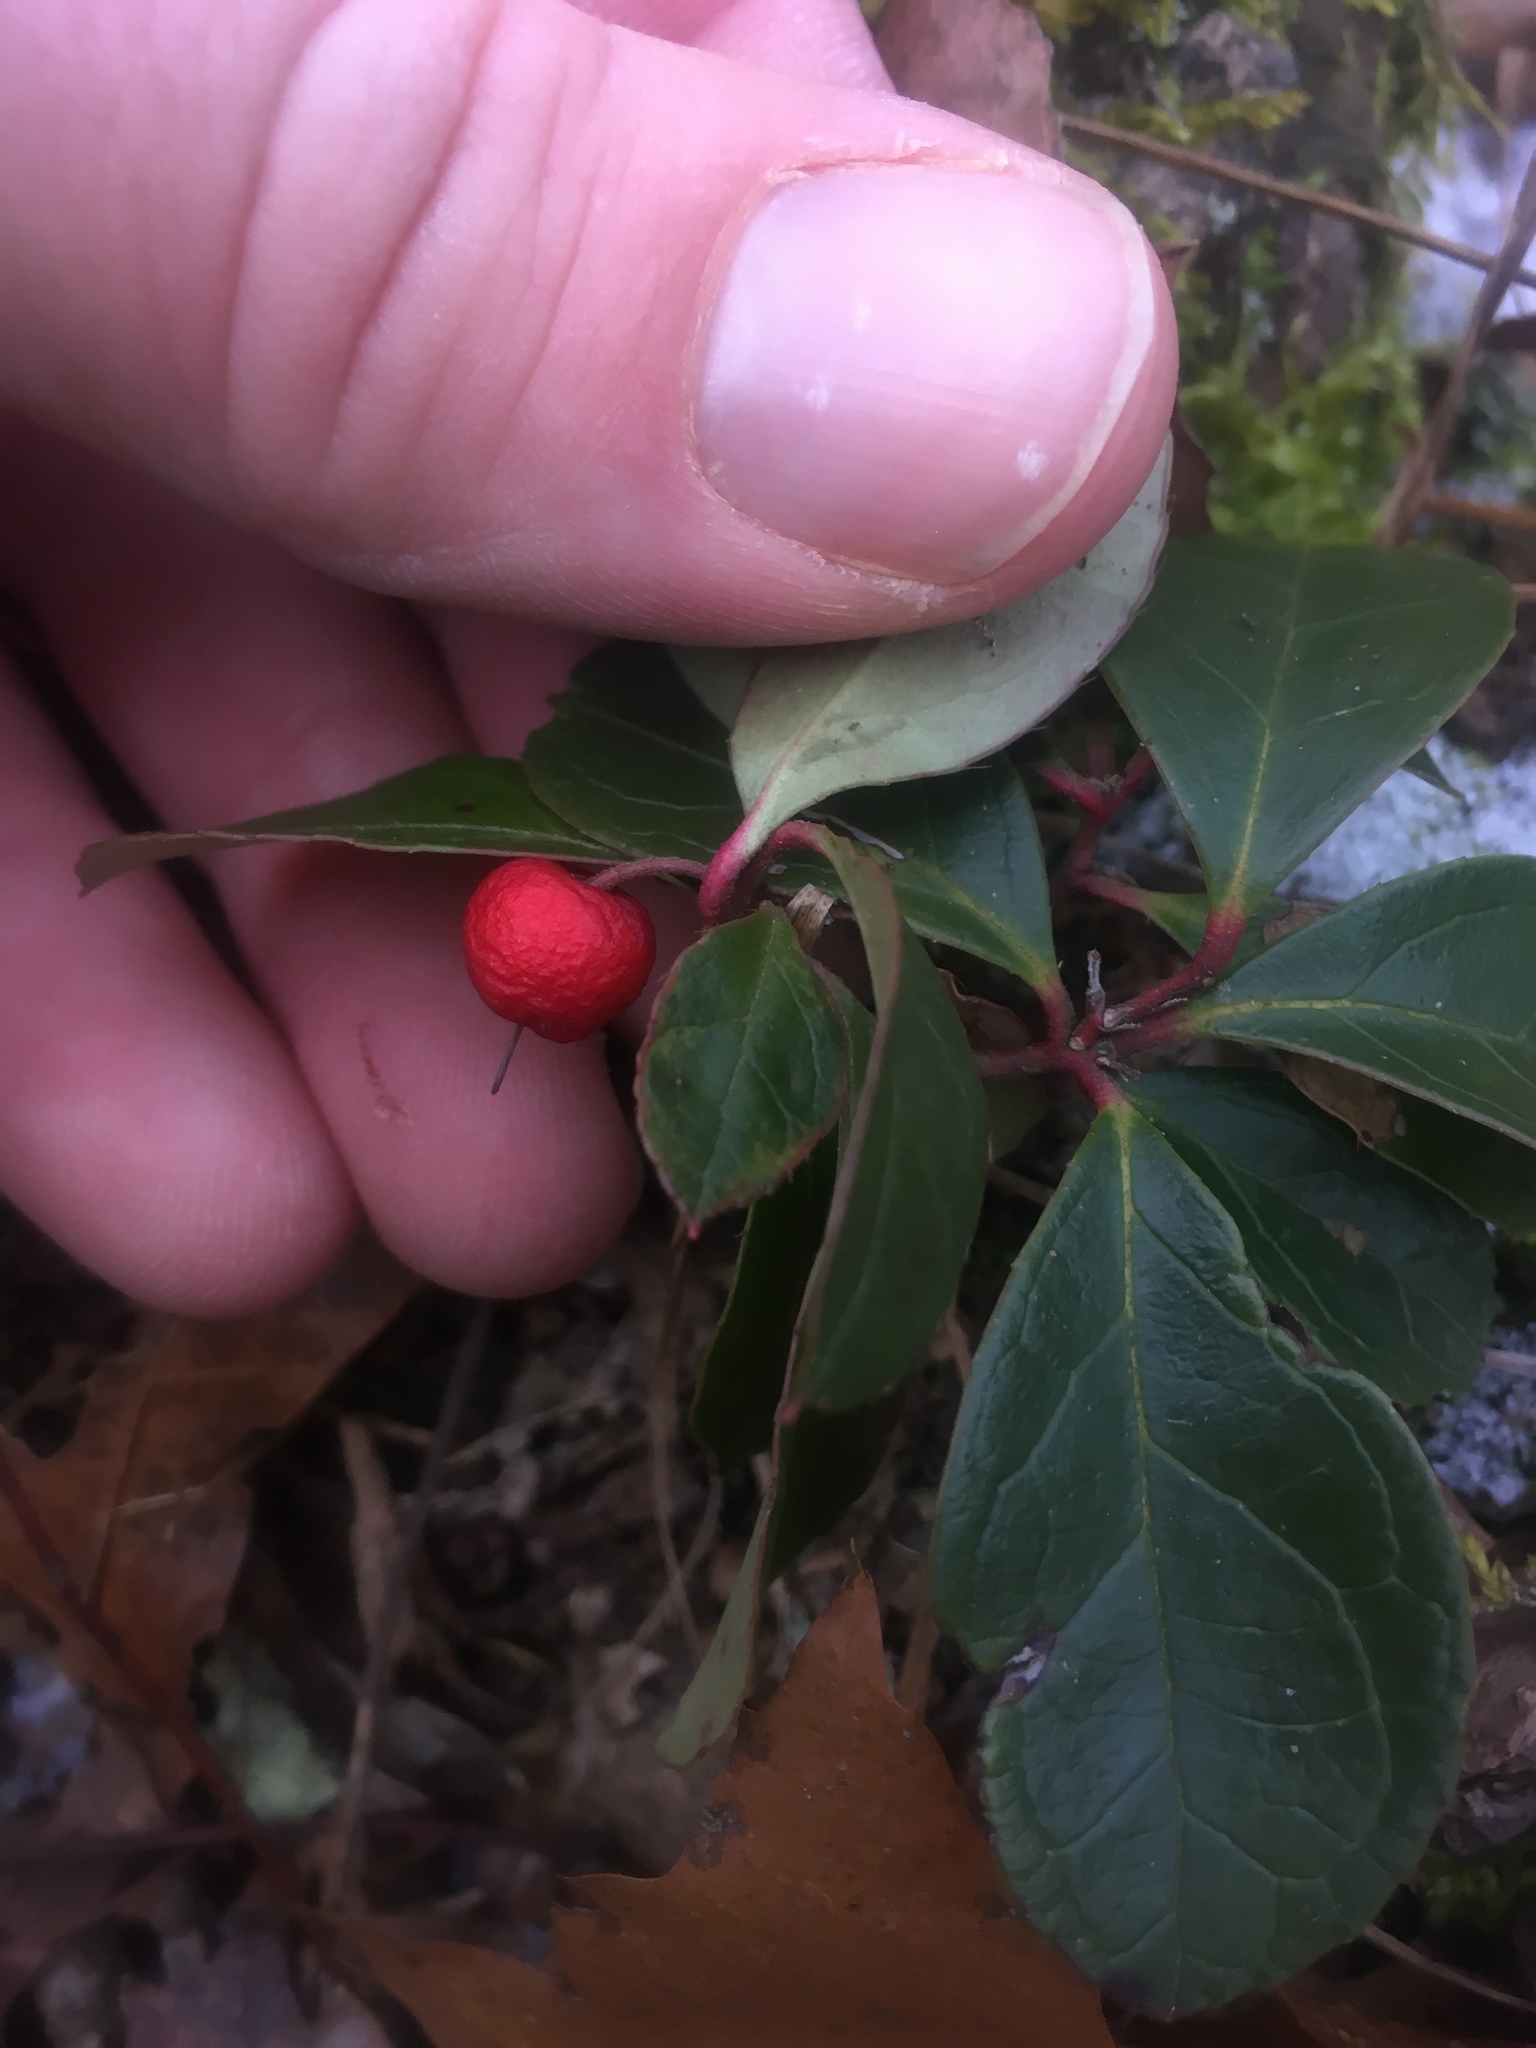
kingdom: Plantae
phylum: Tracheophyta
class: Magnoliopsida
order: Ericales
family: Ericaceae
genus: Gaultheria
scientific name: Gaultheria procumbens
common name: Checkerberry
